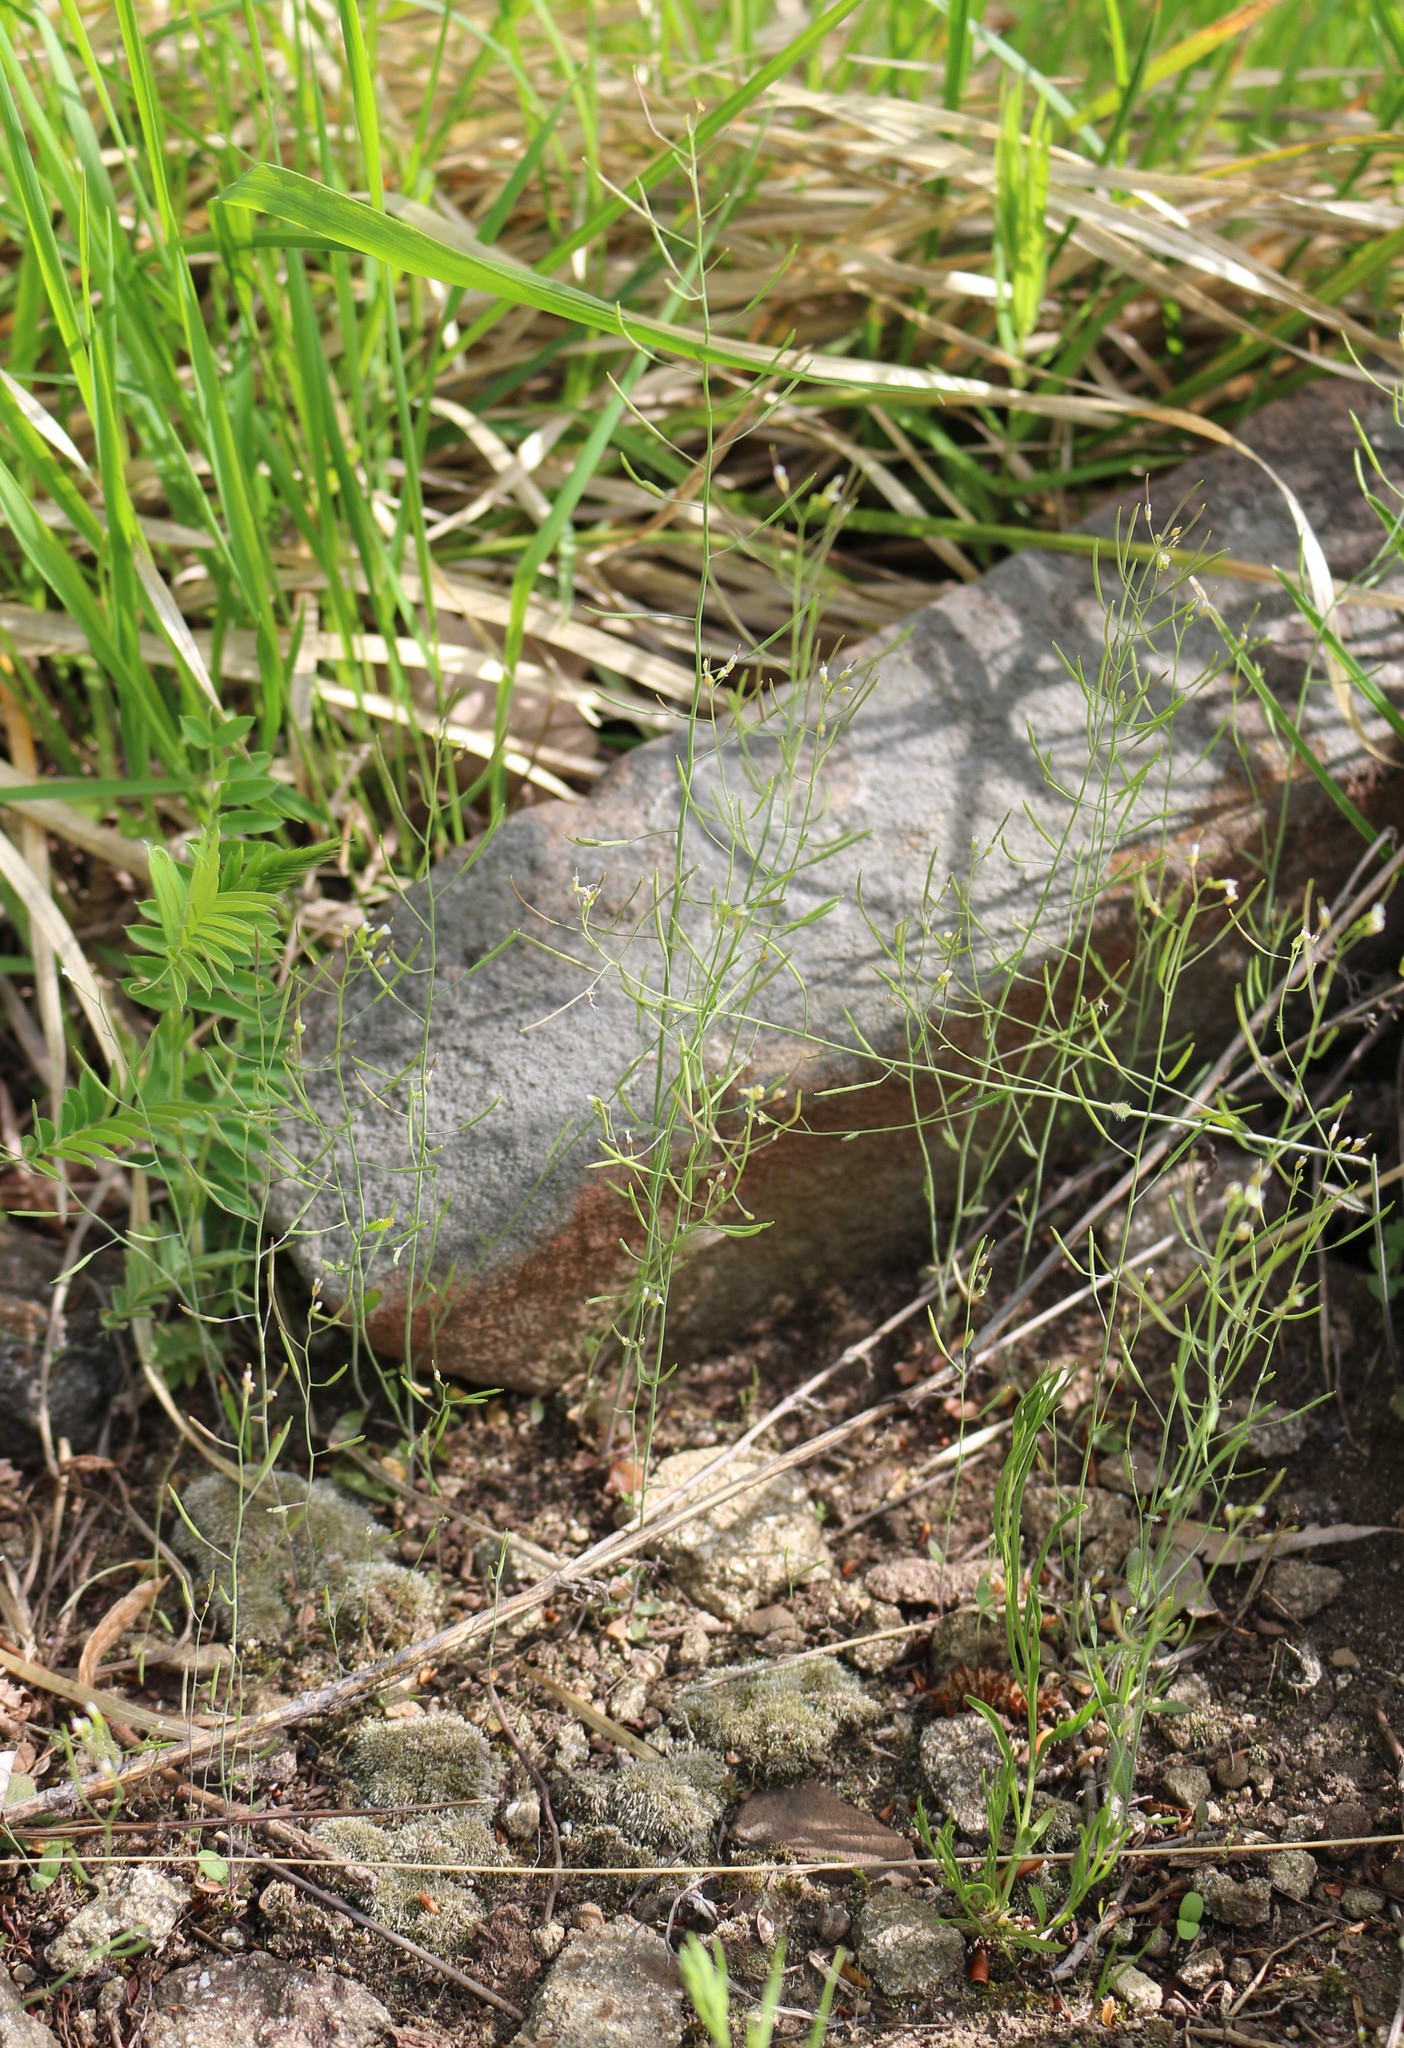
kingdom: Plantae
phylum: Tracheophyta
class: Magnoliopsida
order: Brassicales
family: Brassicaceae
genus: Arabidopsis
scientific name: Arabidopsis thaliana
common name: Thale cress
